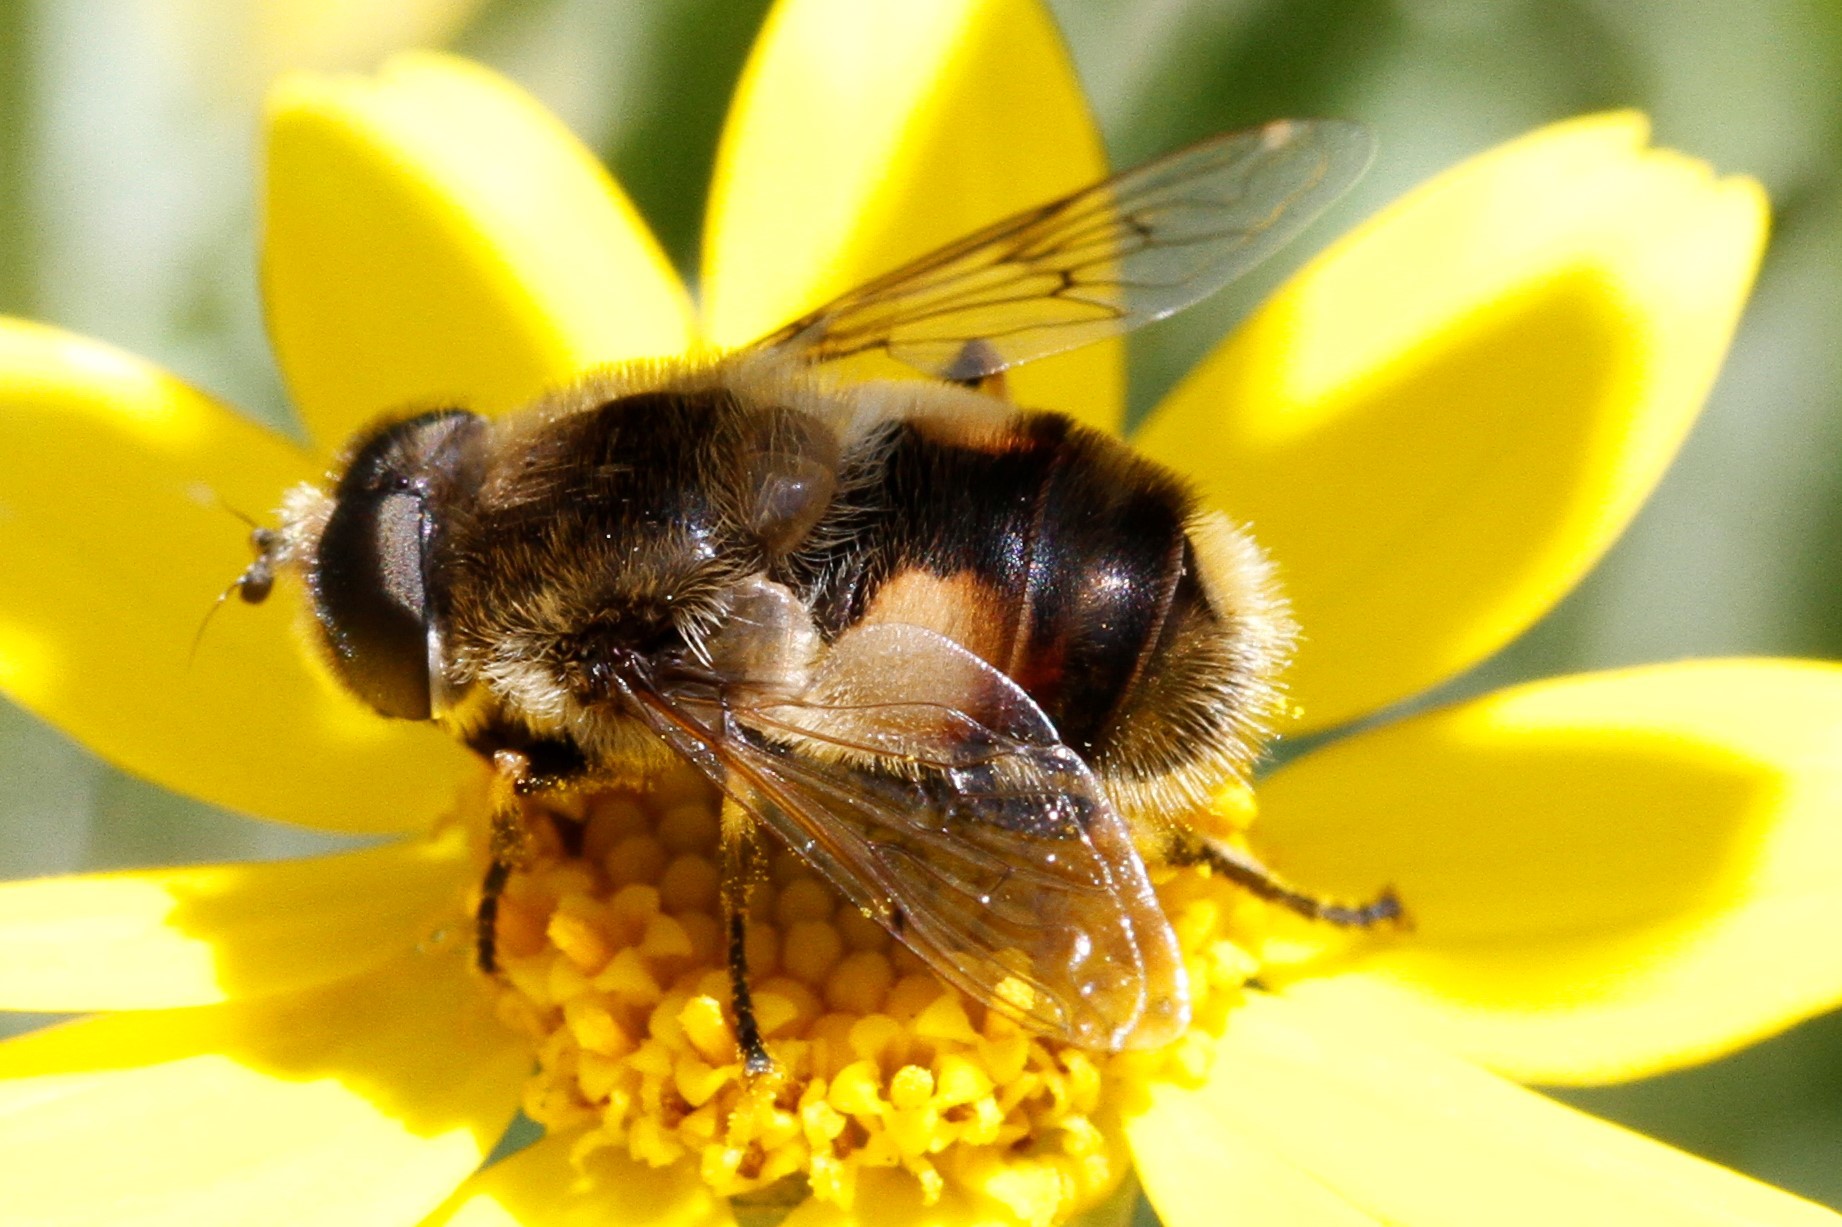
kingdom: Animalia
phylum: Arthropoda
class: Insecta
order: Diptera
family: Syrphidae
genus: Eristalis
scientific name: Eristalis anthophorina
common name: Orange-spotted drone fly
